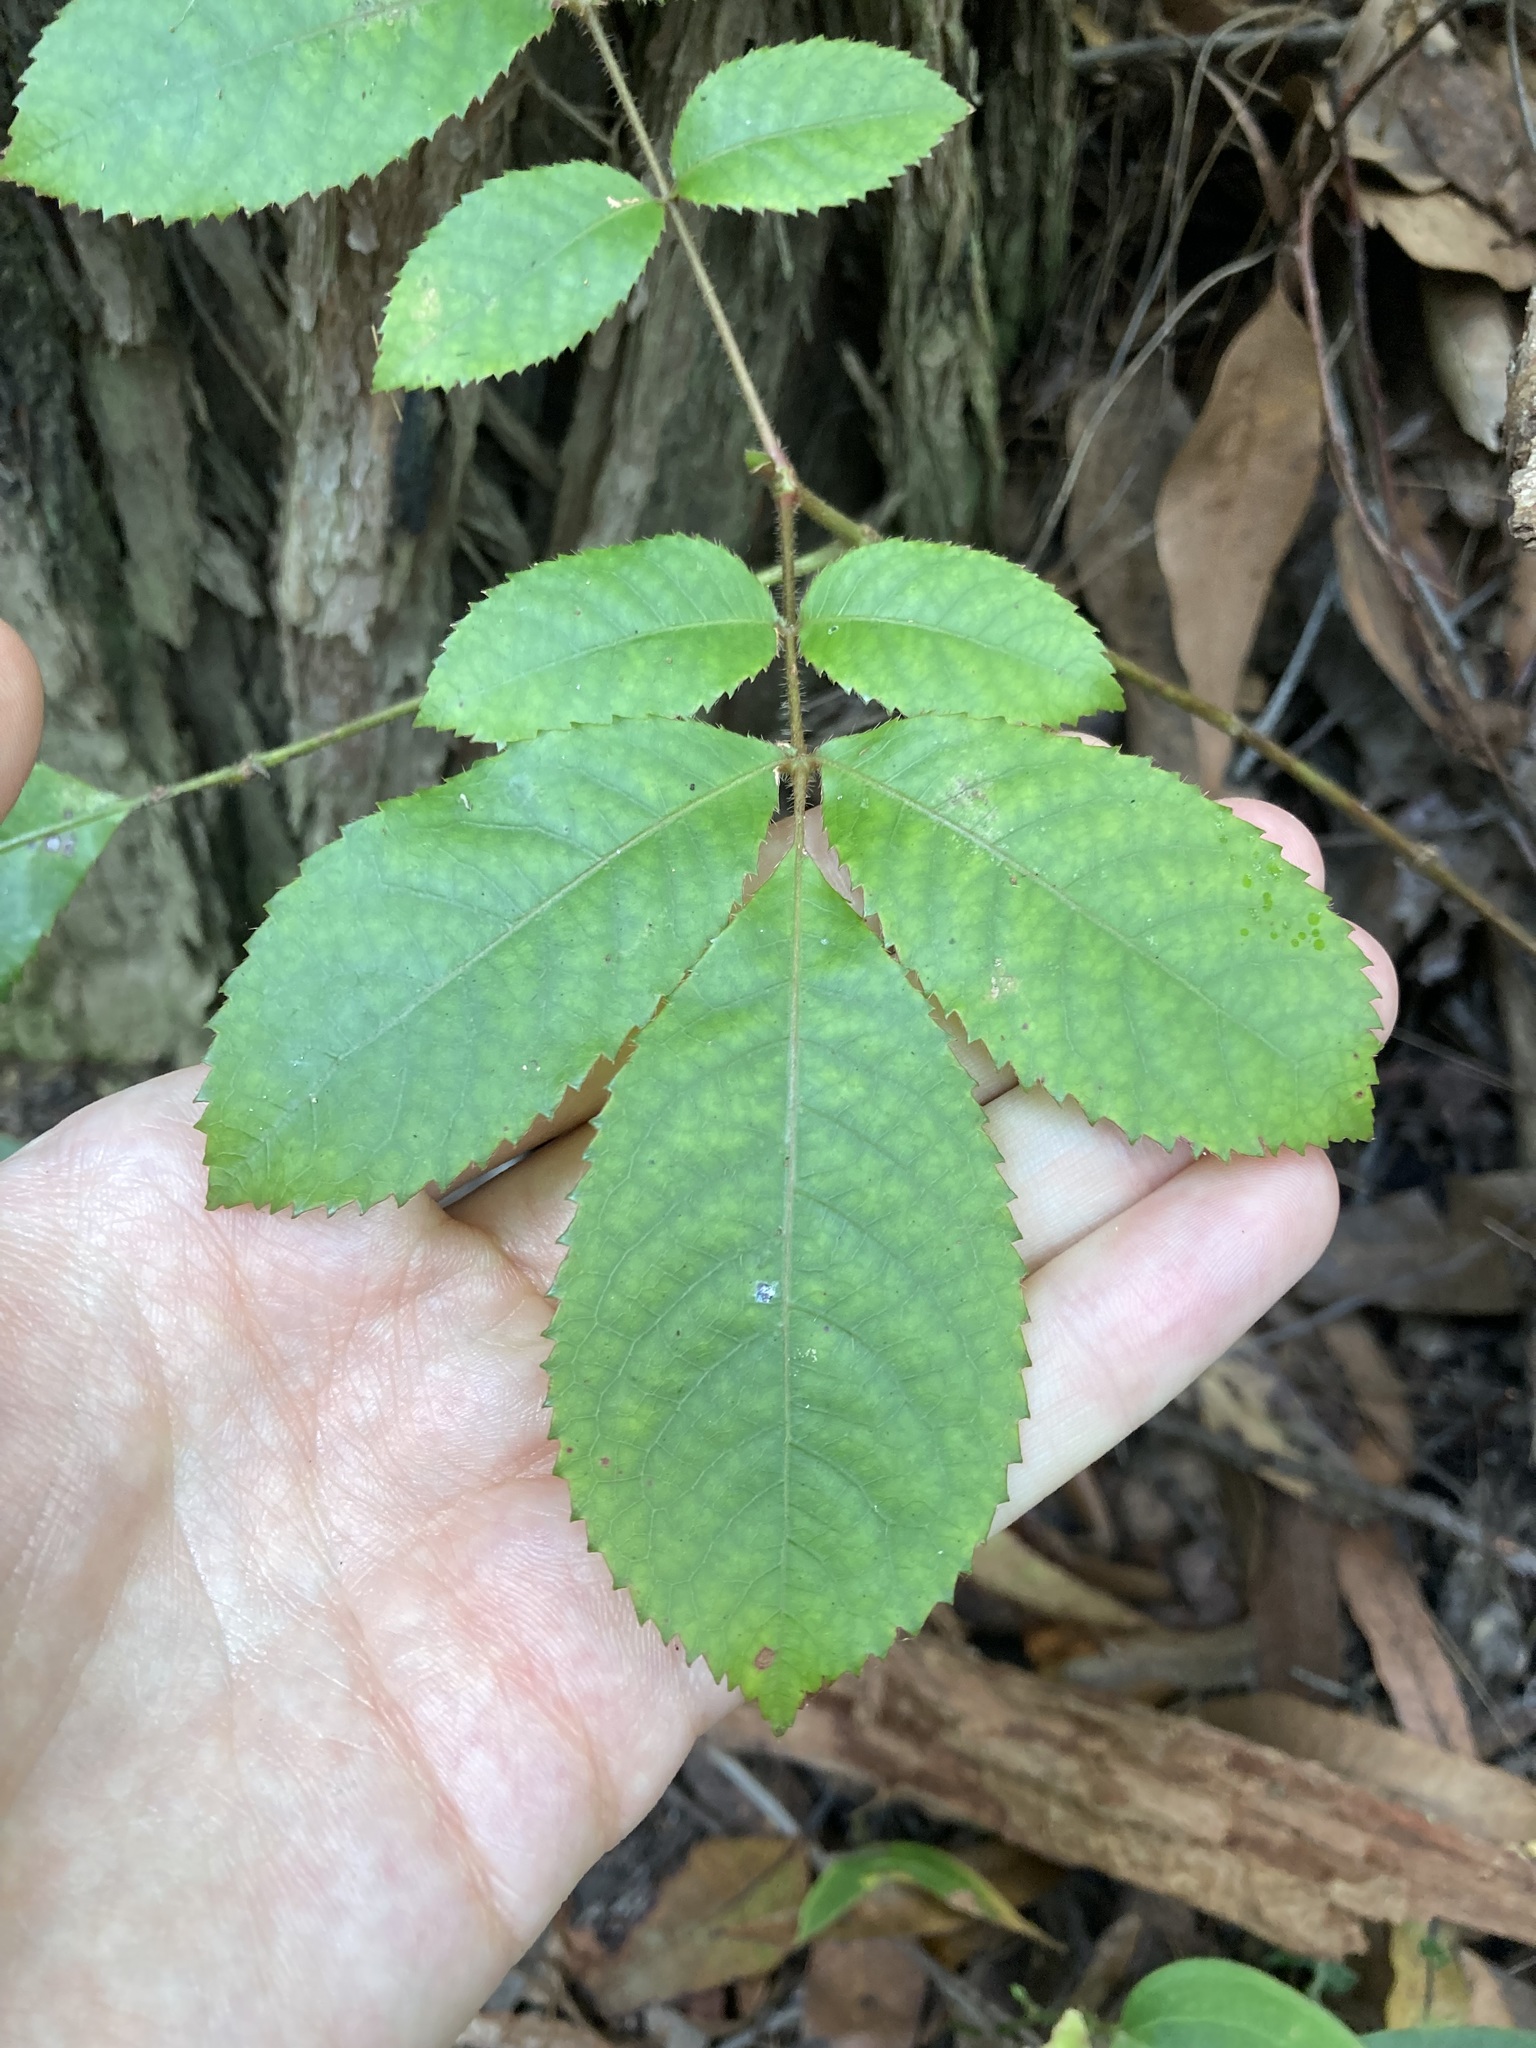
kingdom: Plantae
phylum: Tracheophyta
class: Magnoliopsida
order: Oxalidales
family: Cunoniaceae
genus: Ackama
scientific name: Ackama paniculosa
